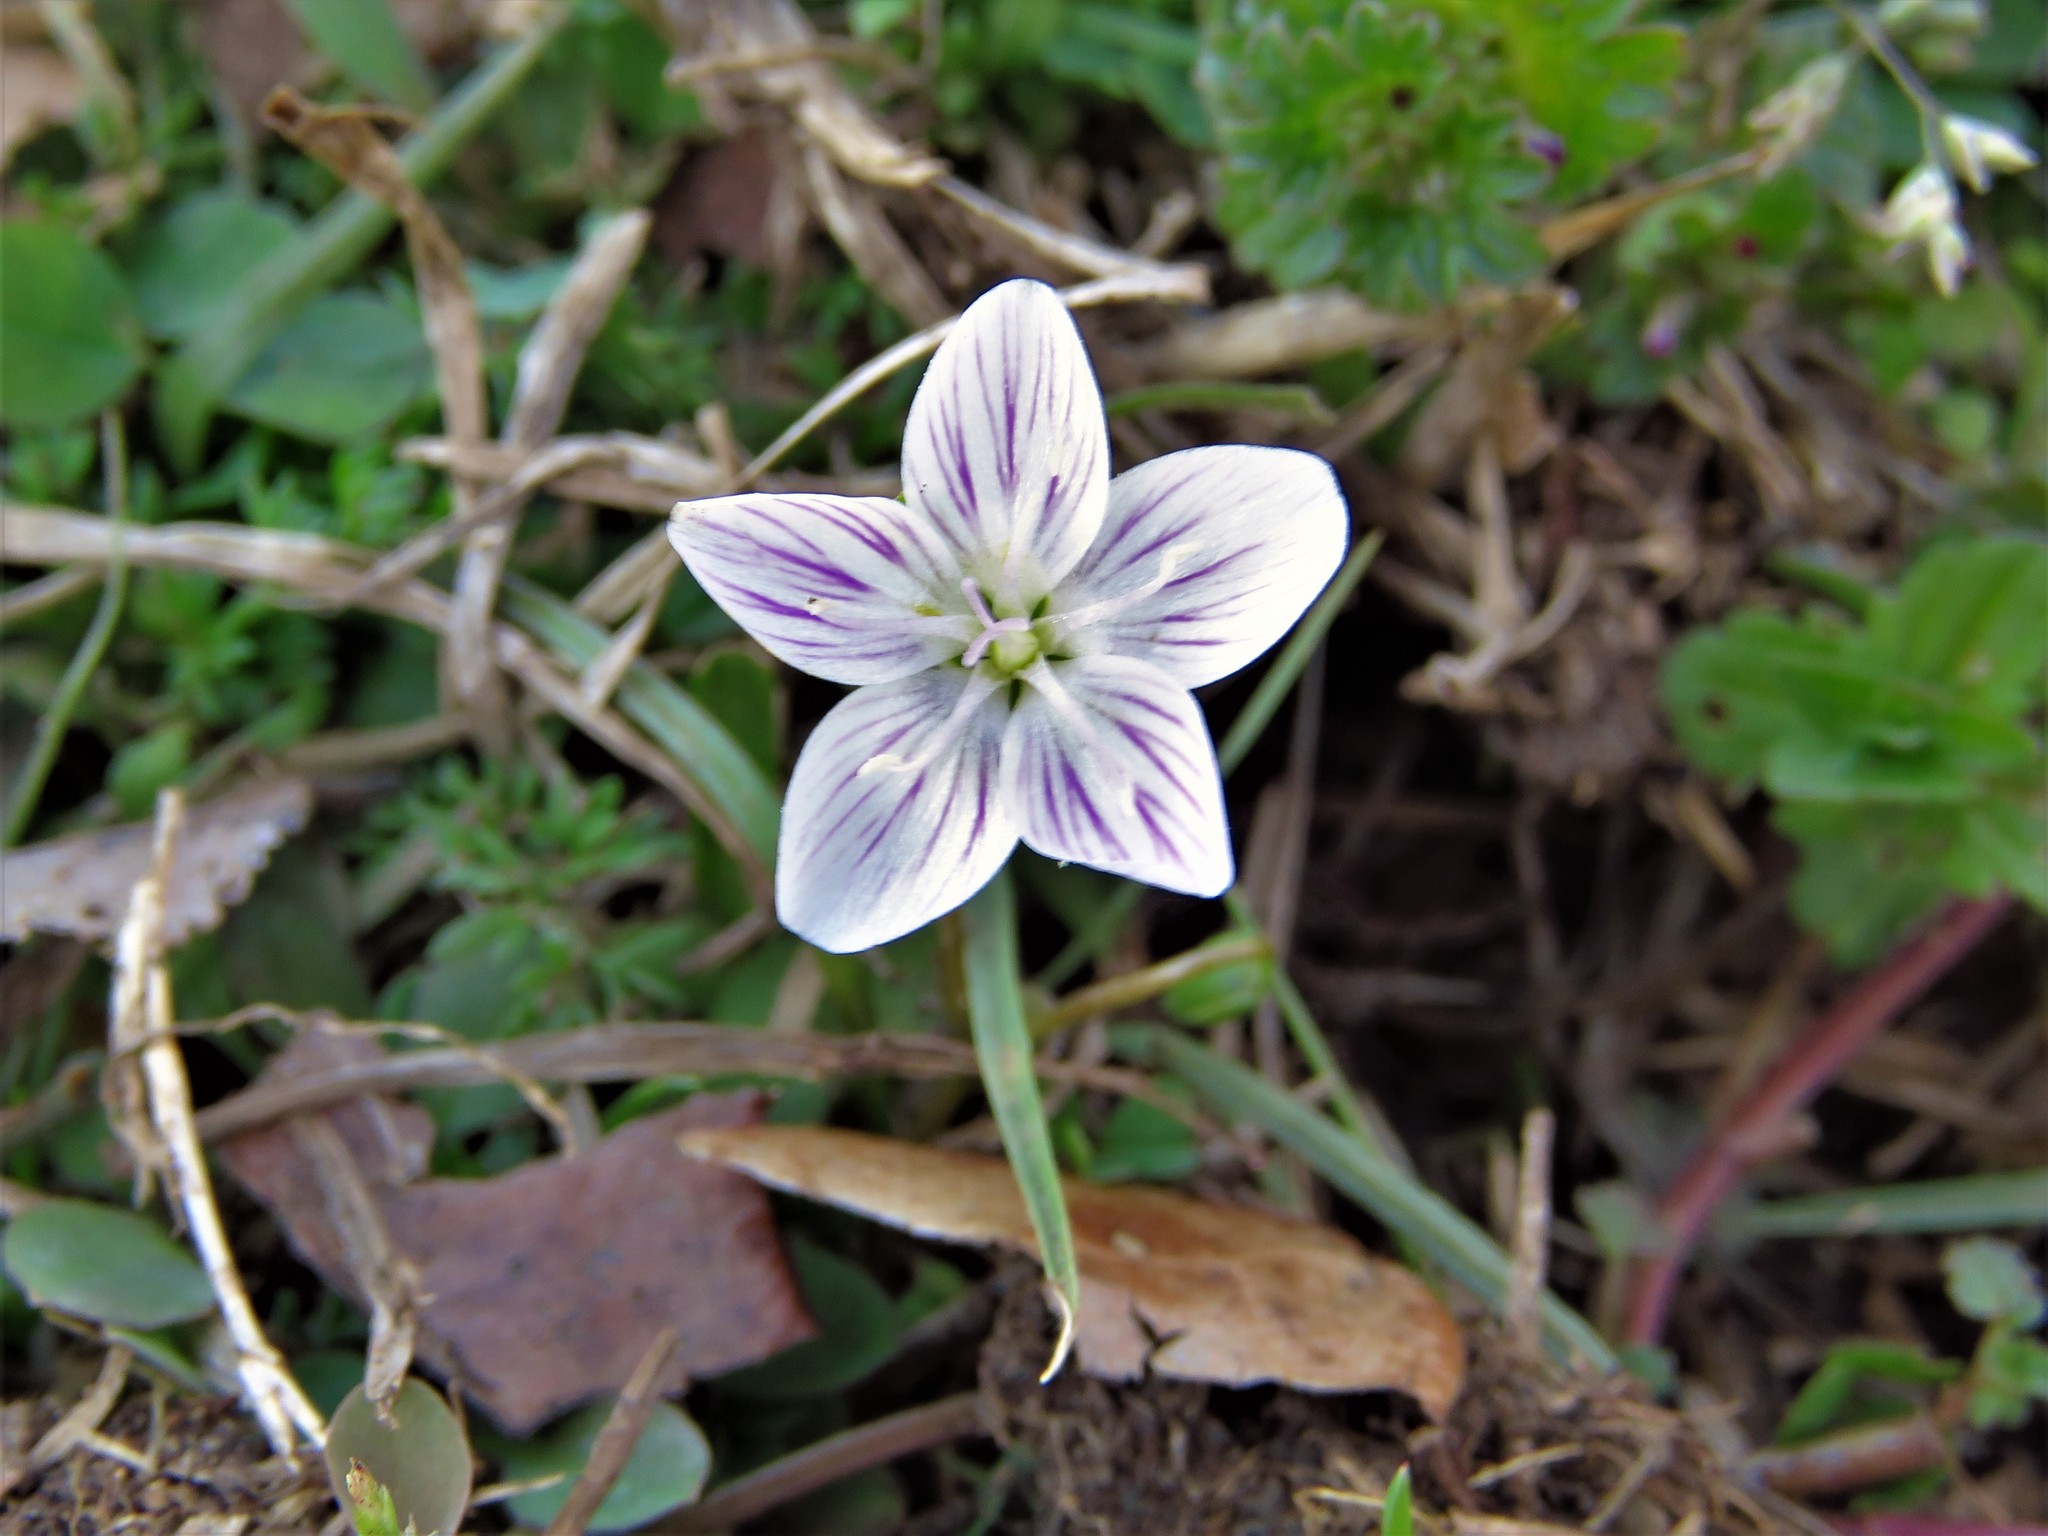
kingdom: Plantae
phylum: Tracheophyta
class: Magnoliopsida
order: Caryophyllales
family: Montiaceae
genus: Claytonia
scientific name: Claytonia virginica
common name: Virginia springbeauty
